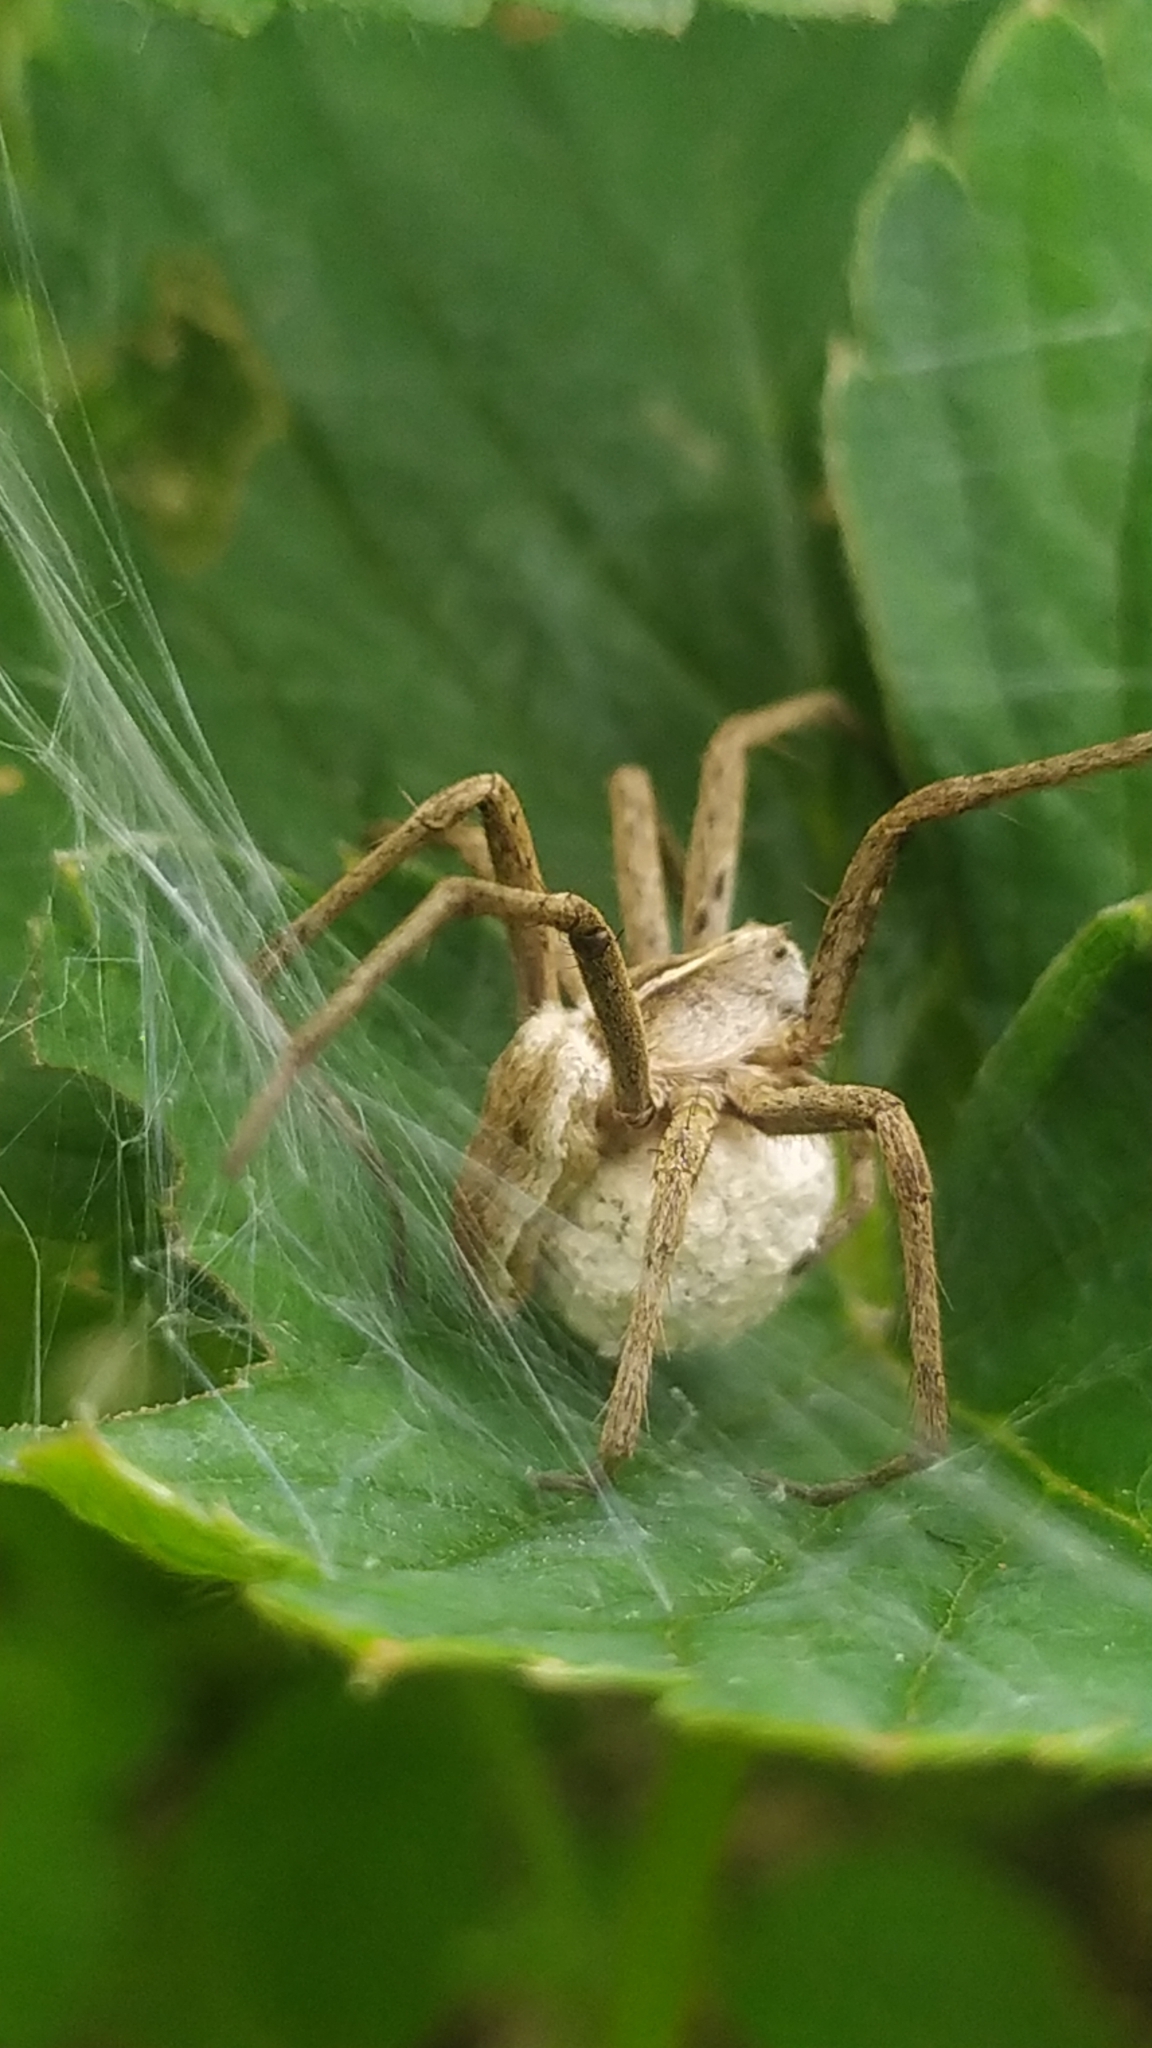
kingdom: Animalia
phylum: Arthropoda
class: Arachnida
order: Araneae
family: Pisauridae
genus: Pisaura
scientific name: Pisaura mirabilis
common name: Tent spider
